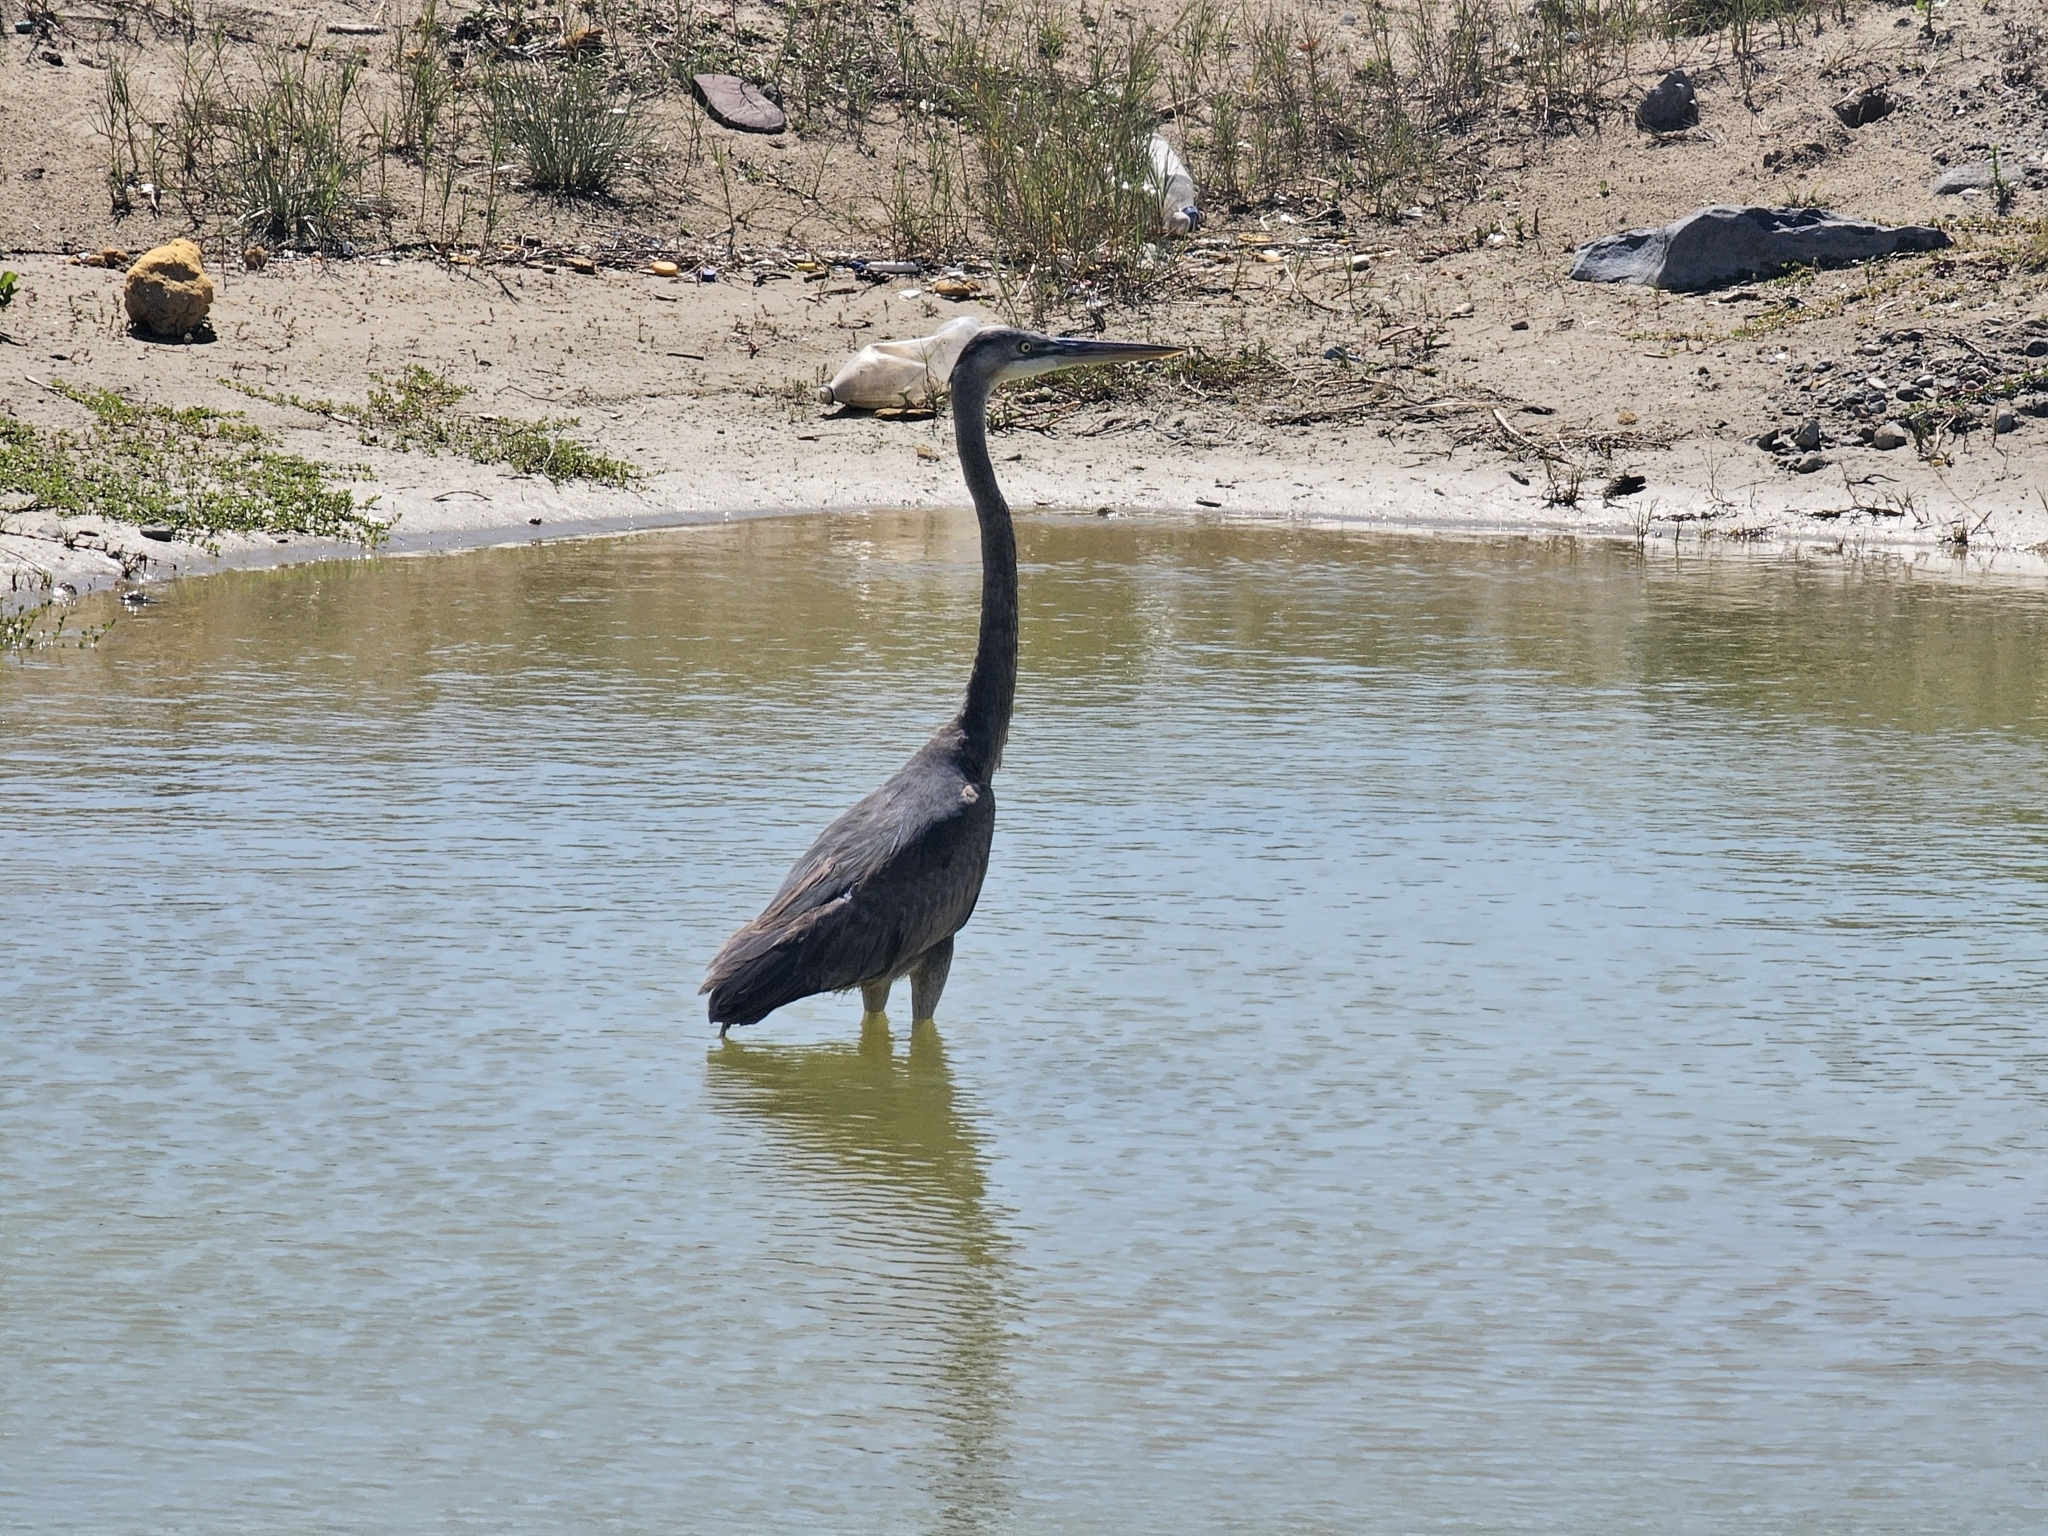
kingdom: Animalia
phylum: Chordata
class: Aves
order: Pelecaniformes
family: Ardeidae
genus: Ardea
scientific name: Ardea herodias
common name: Great blue heron
